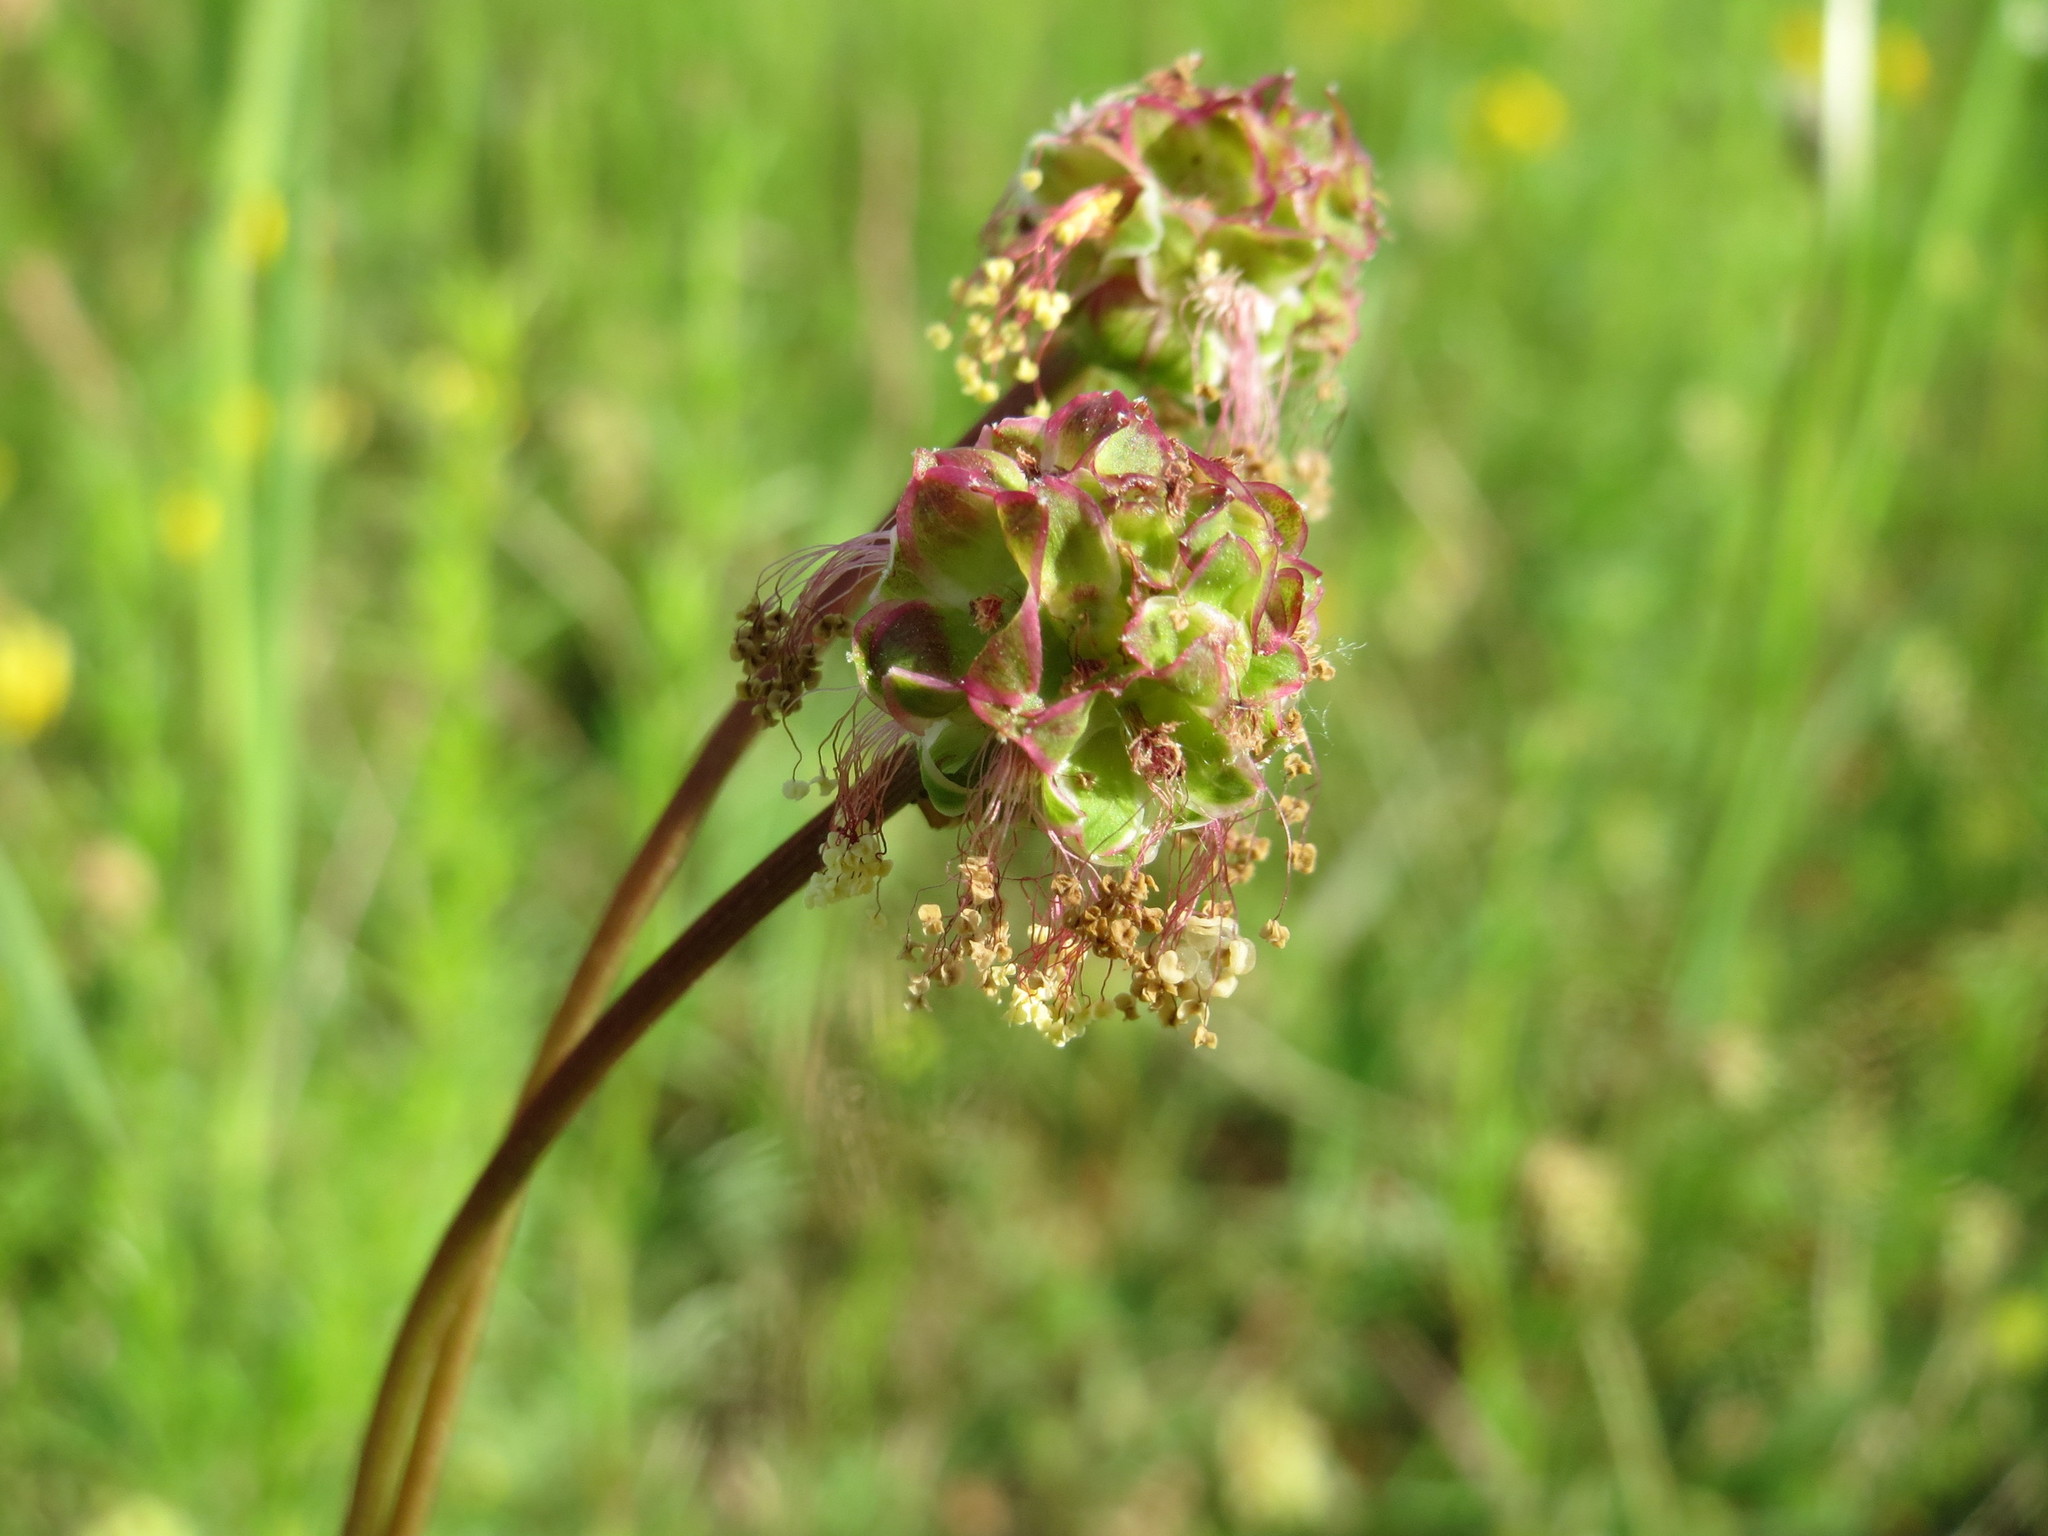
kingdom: Plantae
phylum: Tracheophyta
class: Magnoliopsida
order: Rosales
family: Rosaceae
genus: Poterium
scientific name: Poterium sanguisorba
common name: Salad burnet
